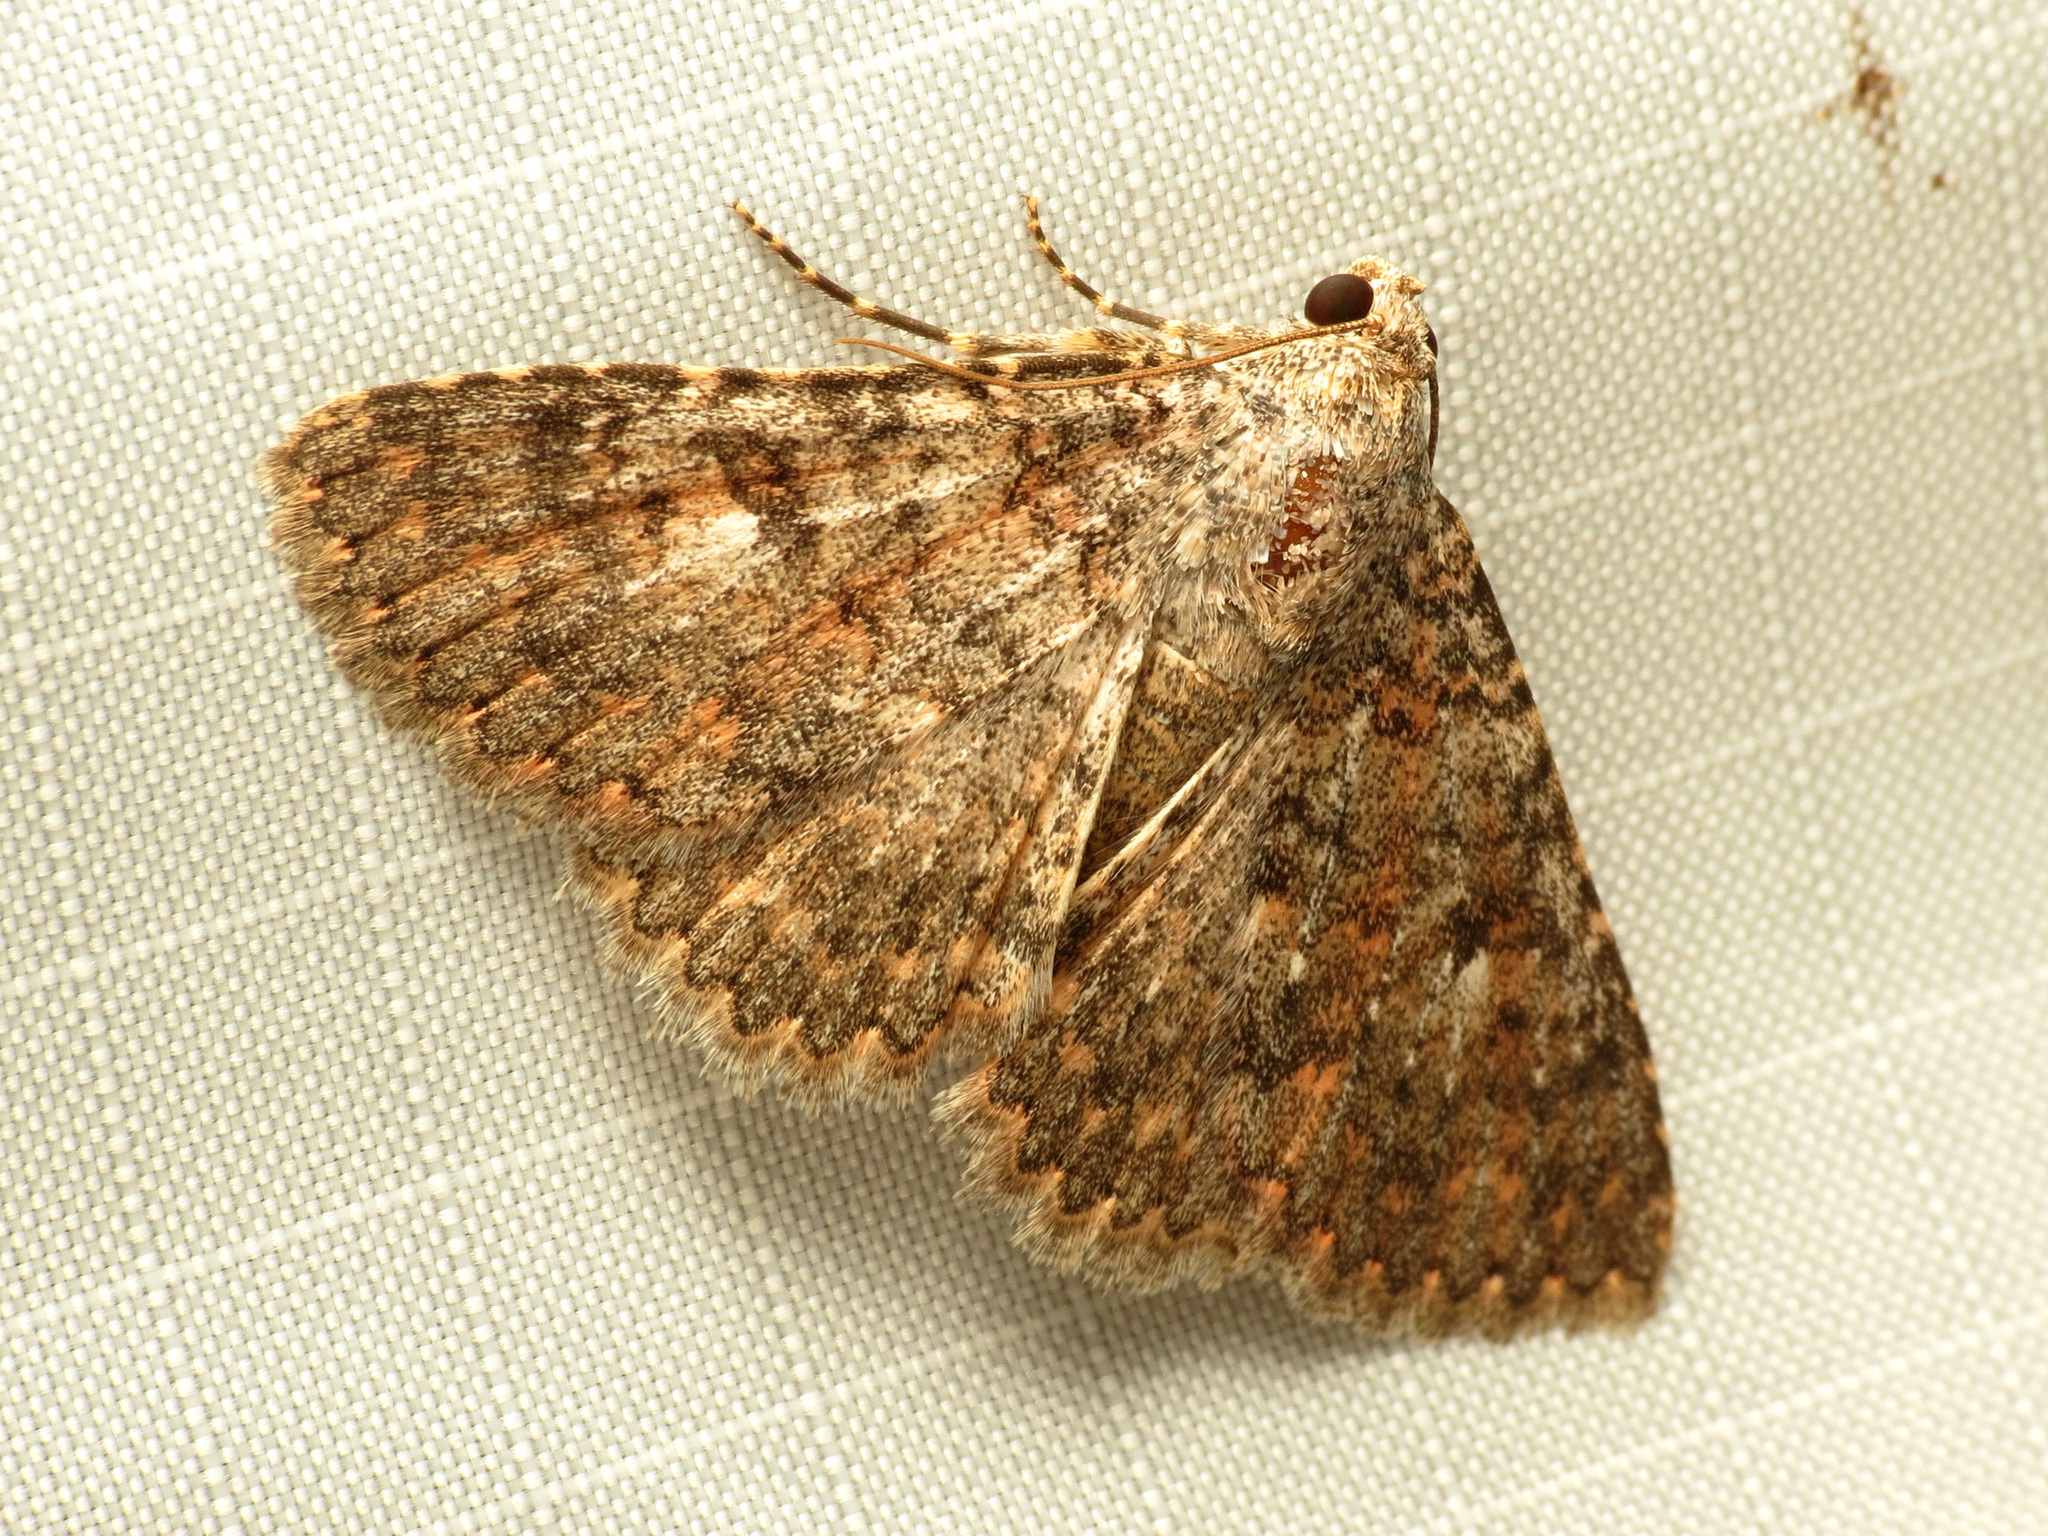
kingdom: Animalia
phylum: Arthropoda
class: Insecta
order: Lepidoptera
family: Erebidae
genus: Matigramma
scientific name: Matigramma emmilta
